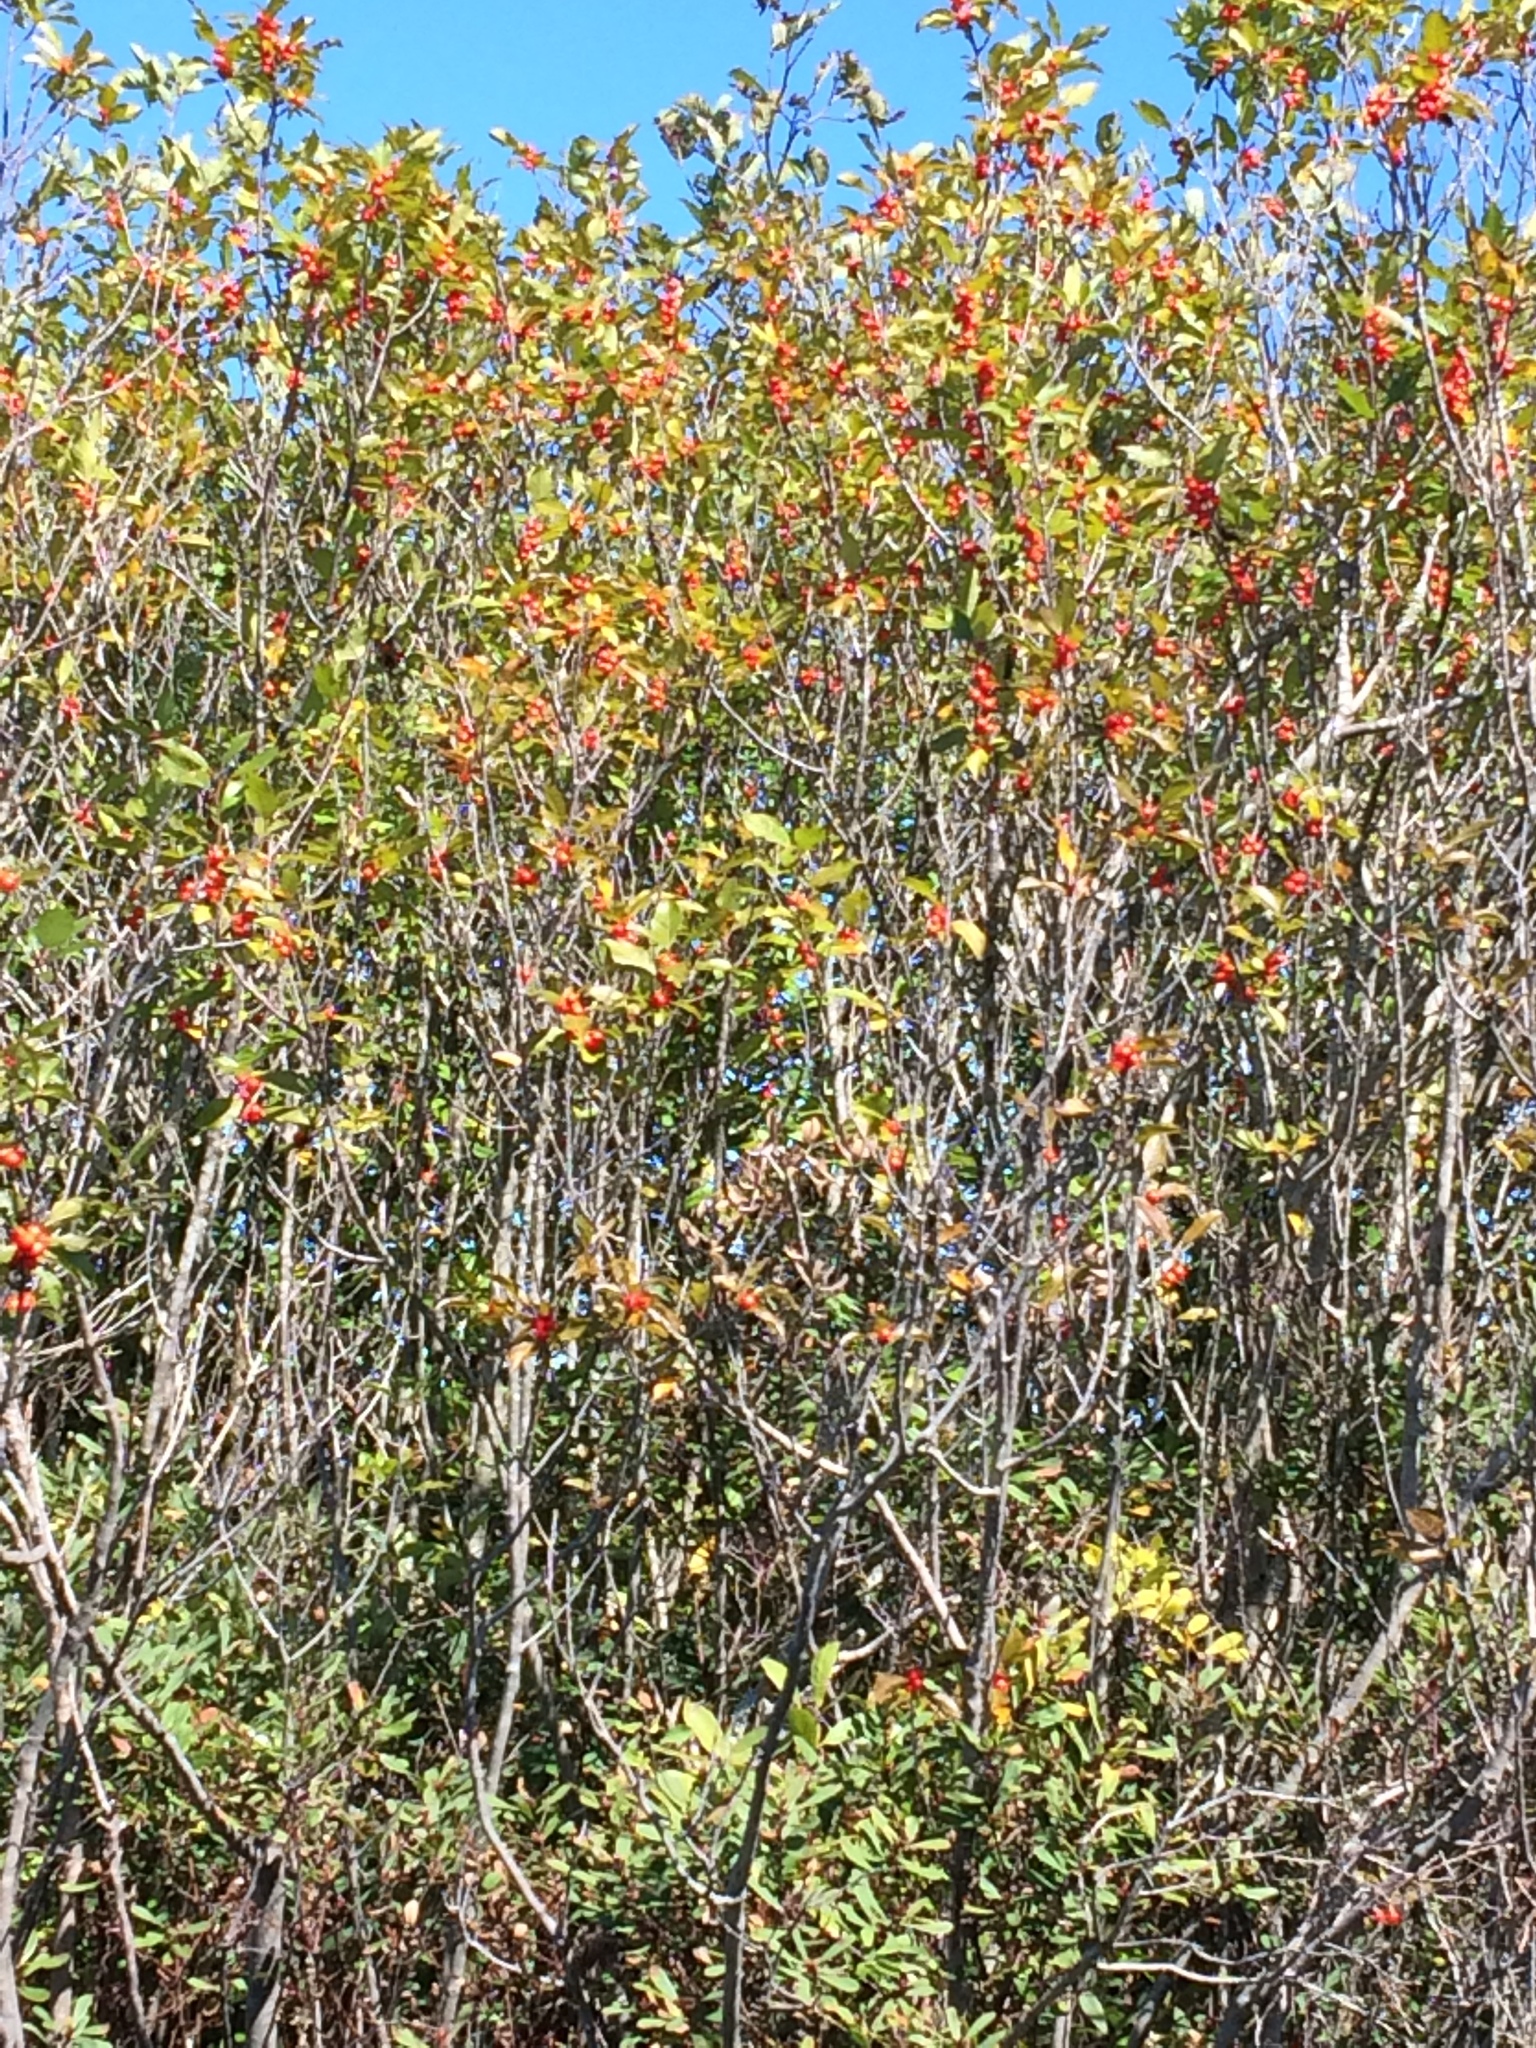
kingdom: Plantae
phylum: Tracheophyta
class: Magnoliopsida
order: Aquifoliales
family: Aquifoliaceae
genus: Ilex
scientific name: Ilex verticillata
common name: Virginia winterberry
